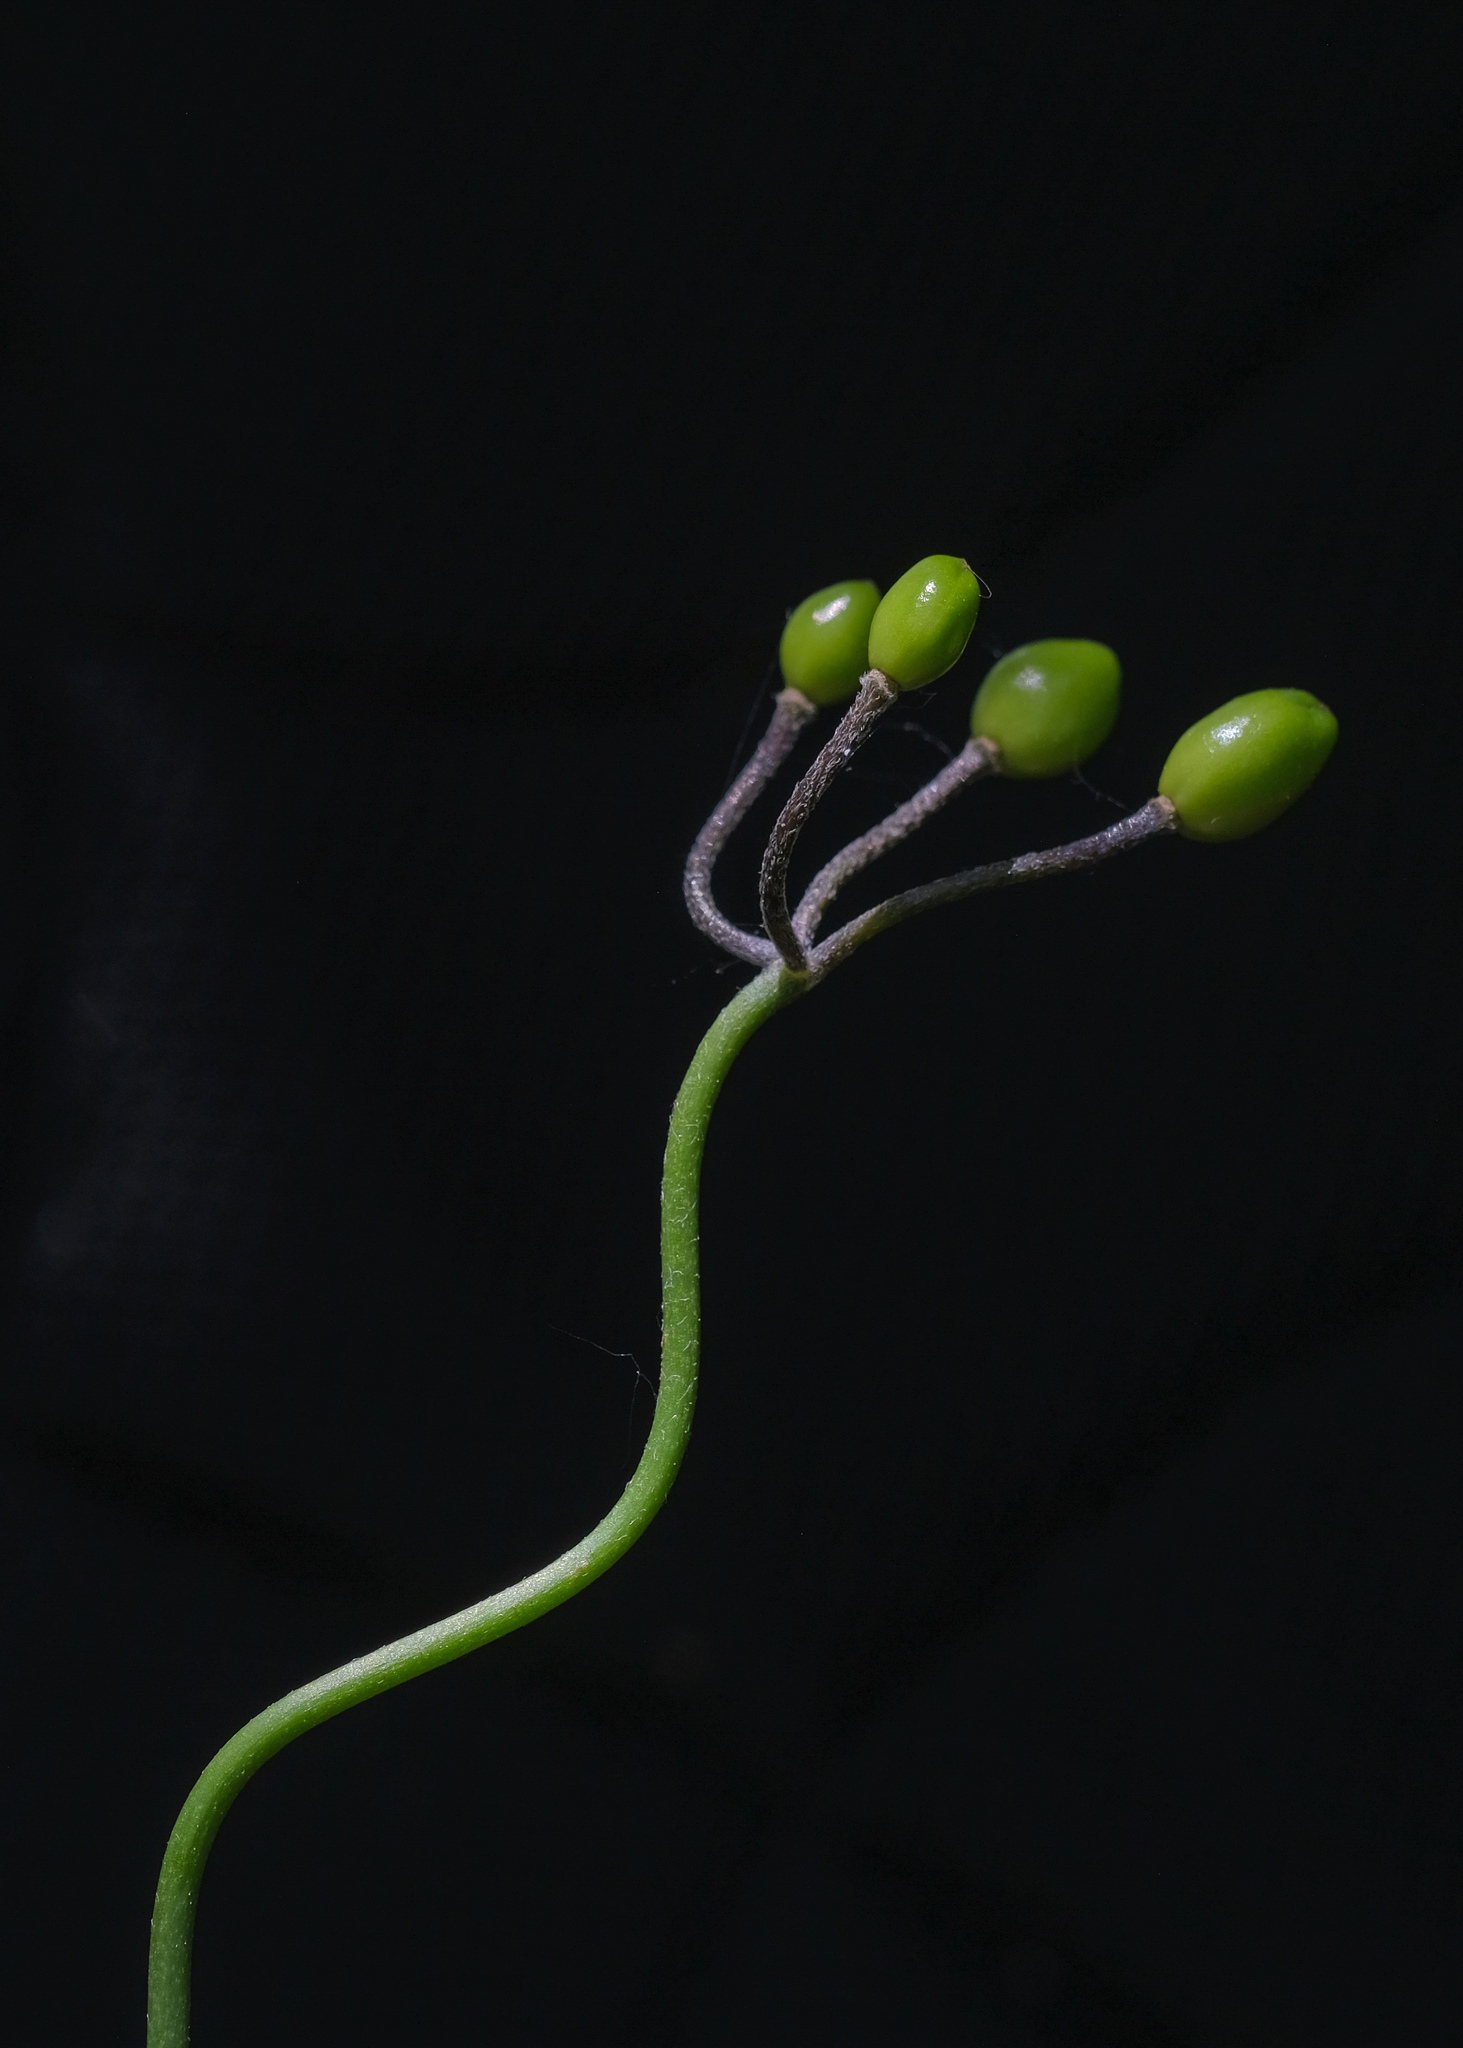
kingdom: Plantae
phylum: Tracheophyta
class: Liliopsida
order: Liliales
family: Liliaceae
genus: Clintonia
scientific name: Clintonia borealis
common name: Yellow clintonia
